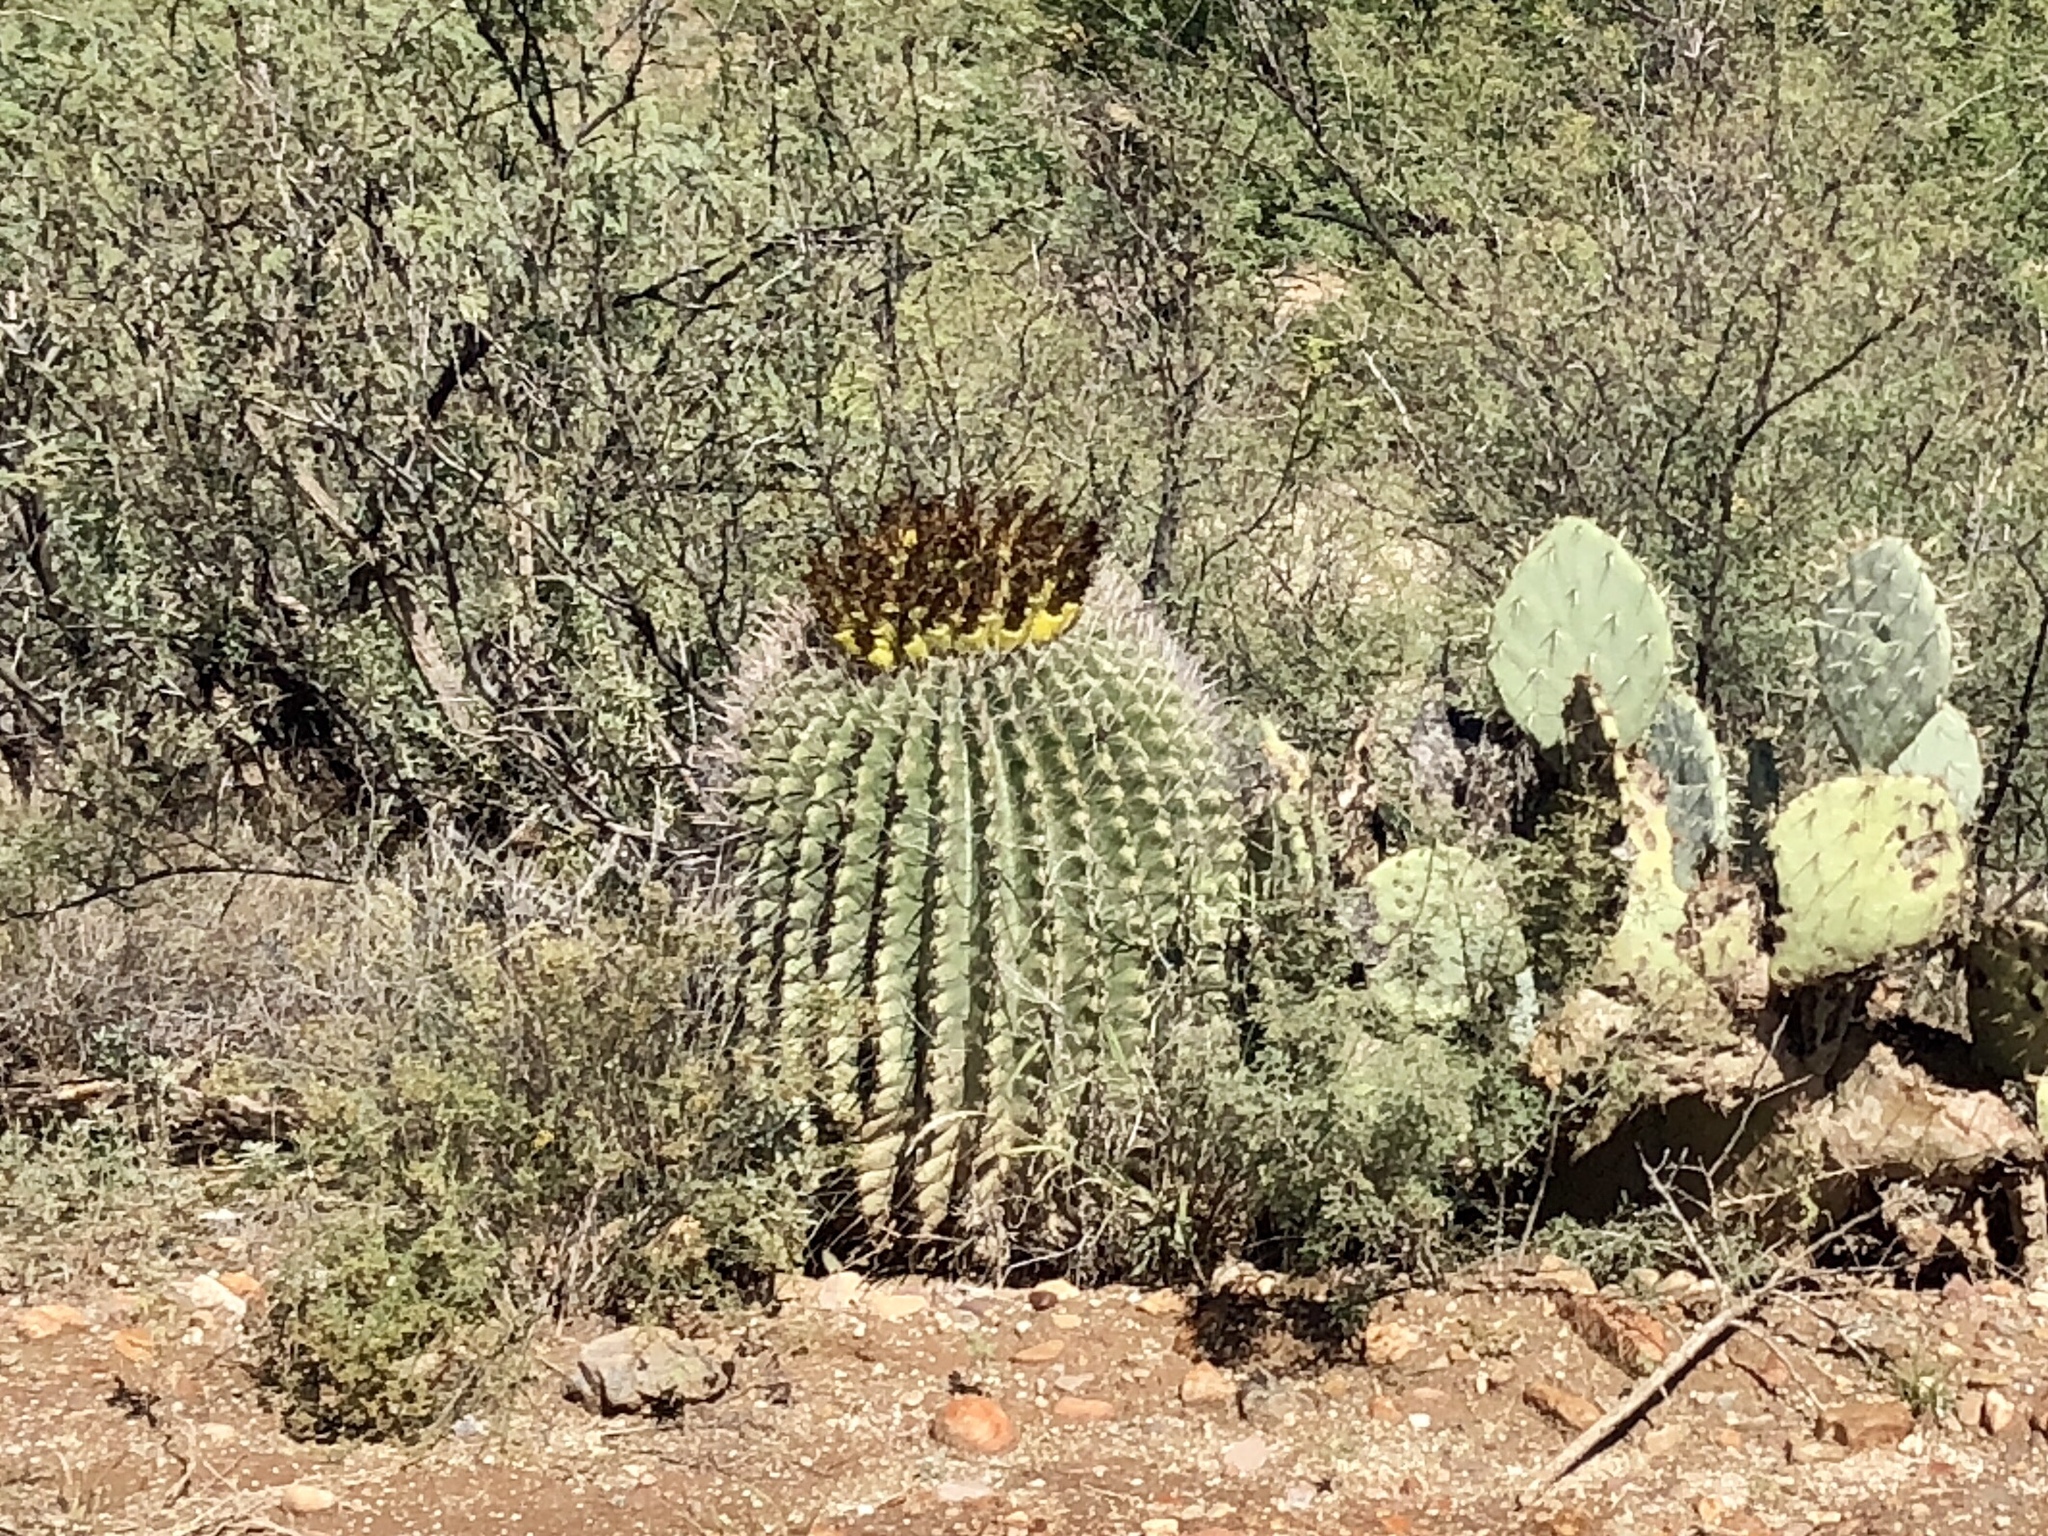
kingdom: Plantae
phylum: Tracheophyta
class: Magnoliopsida
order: Caryophyllales
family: Cactaceae
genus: Ferocactus
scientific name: Ferocactus wislizeni
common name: Candy barrel cactus
